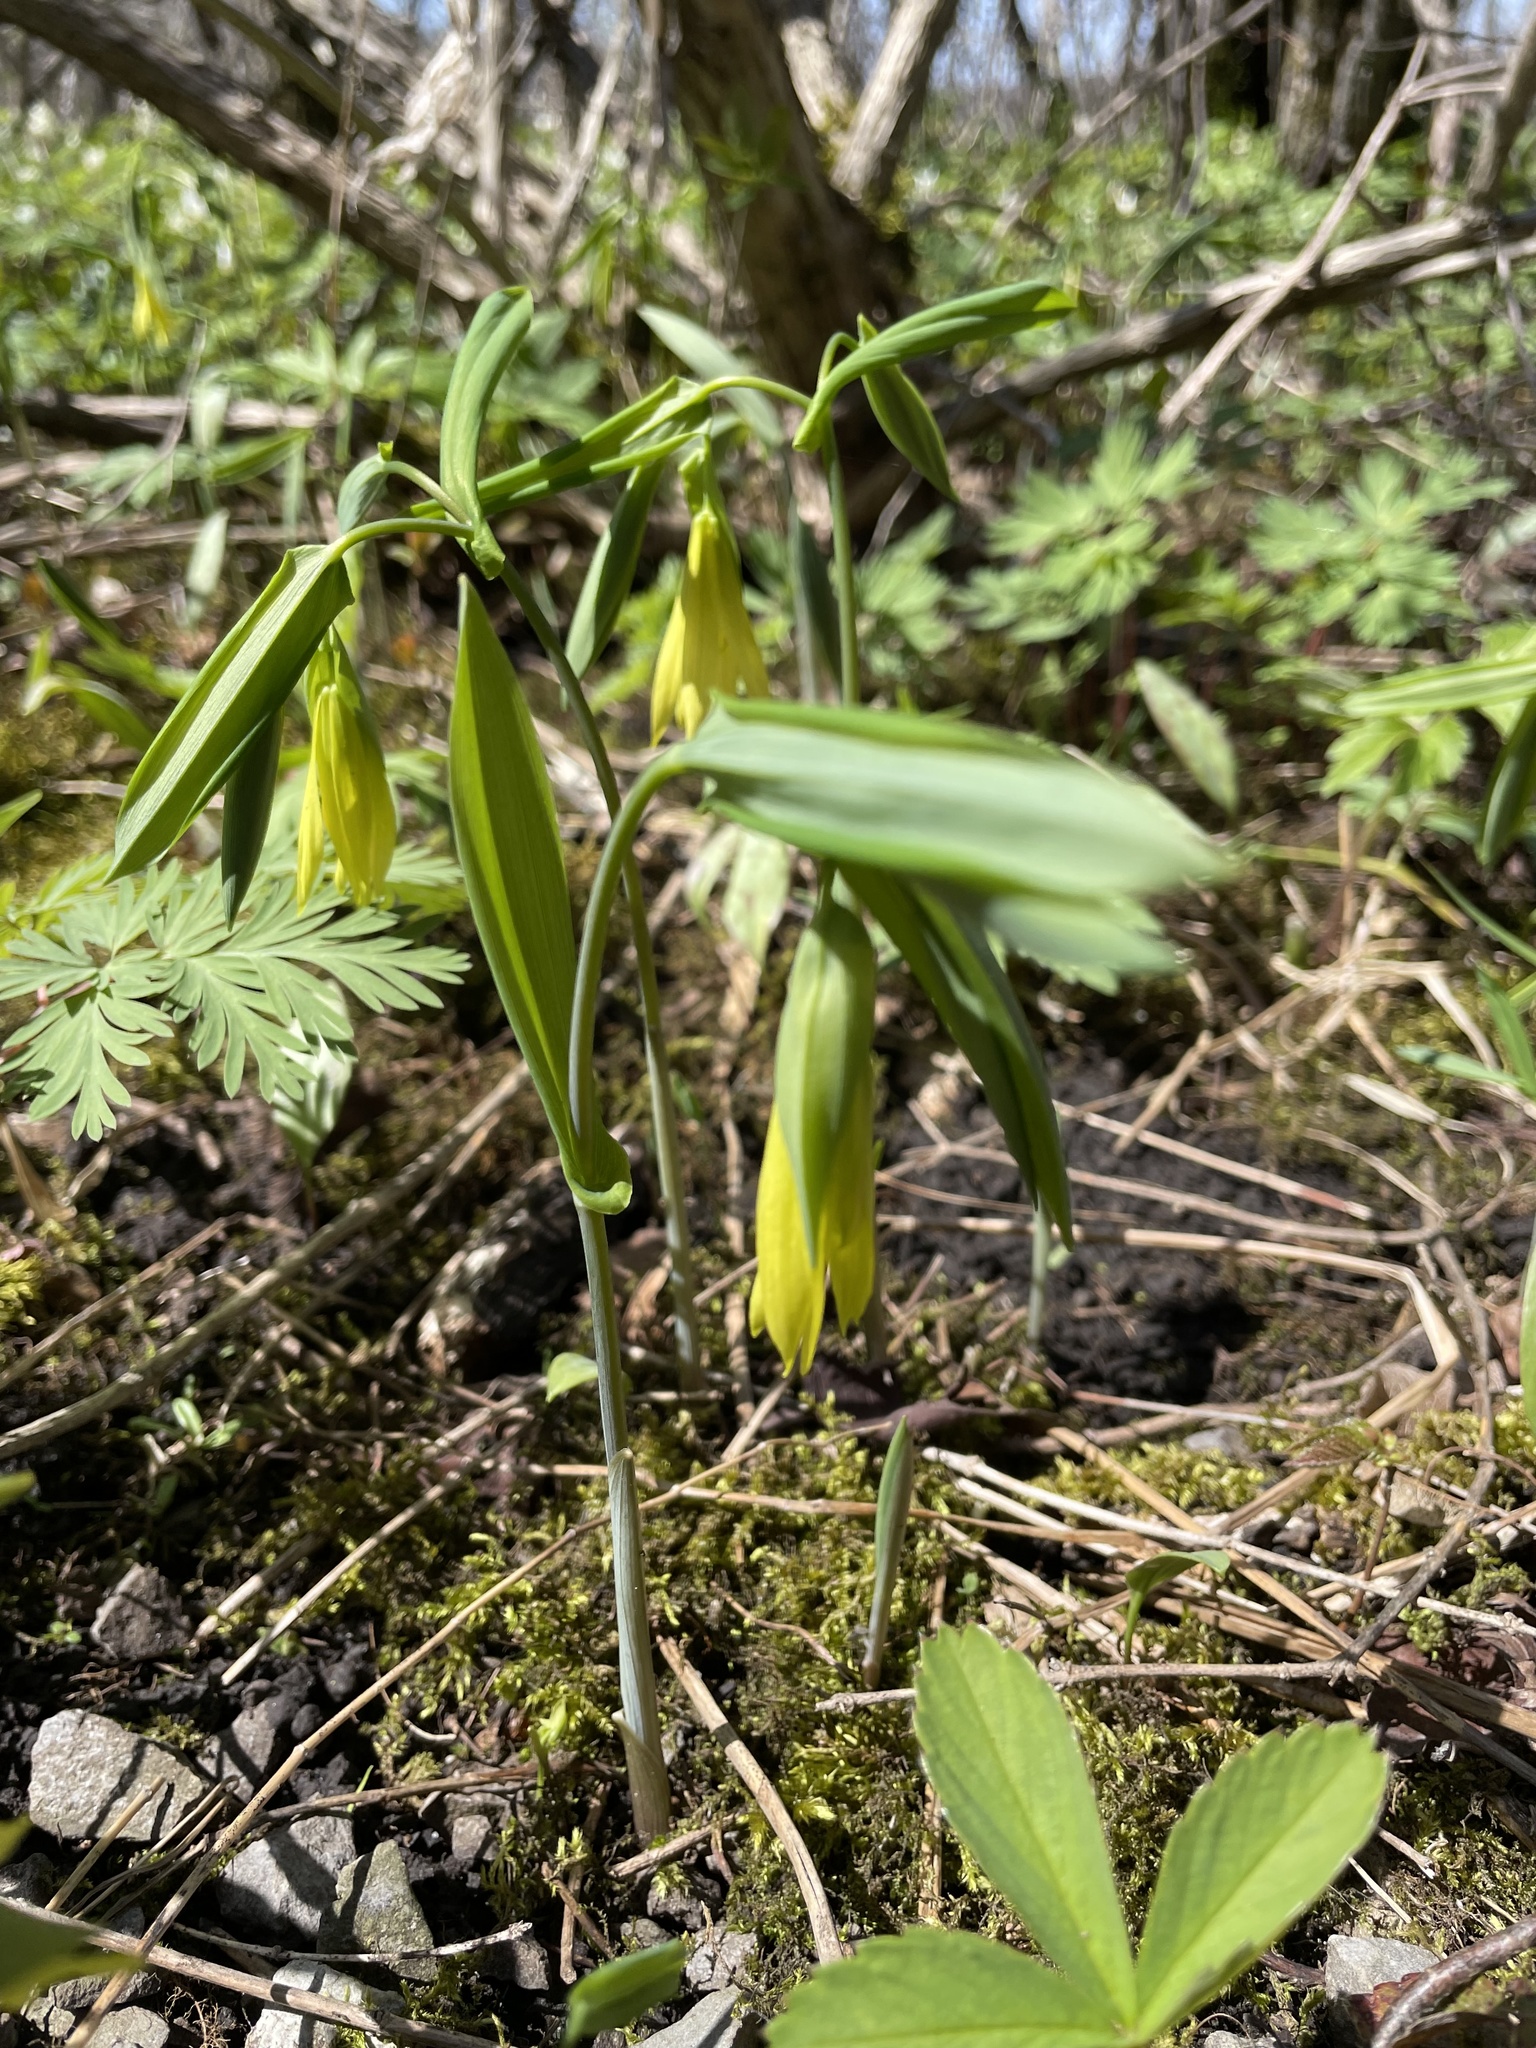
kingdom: Plantae
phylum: Tracheophyta
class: Liliopsida
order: Liliales
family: Colchicaceae
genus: Uvularia
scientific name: Uvularia grandiflora
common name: Bellwort
